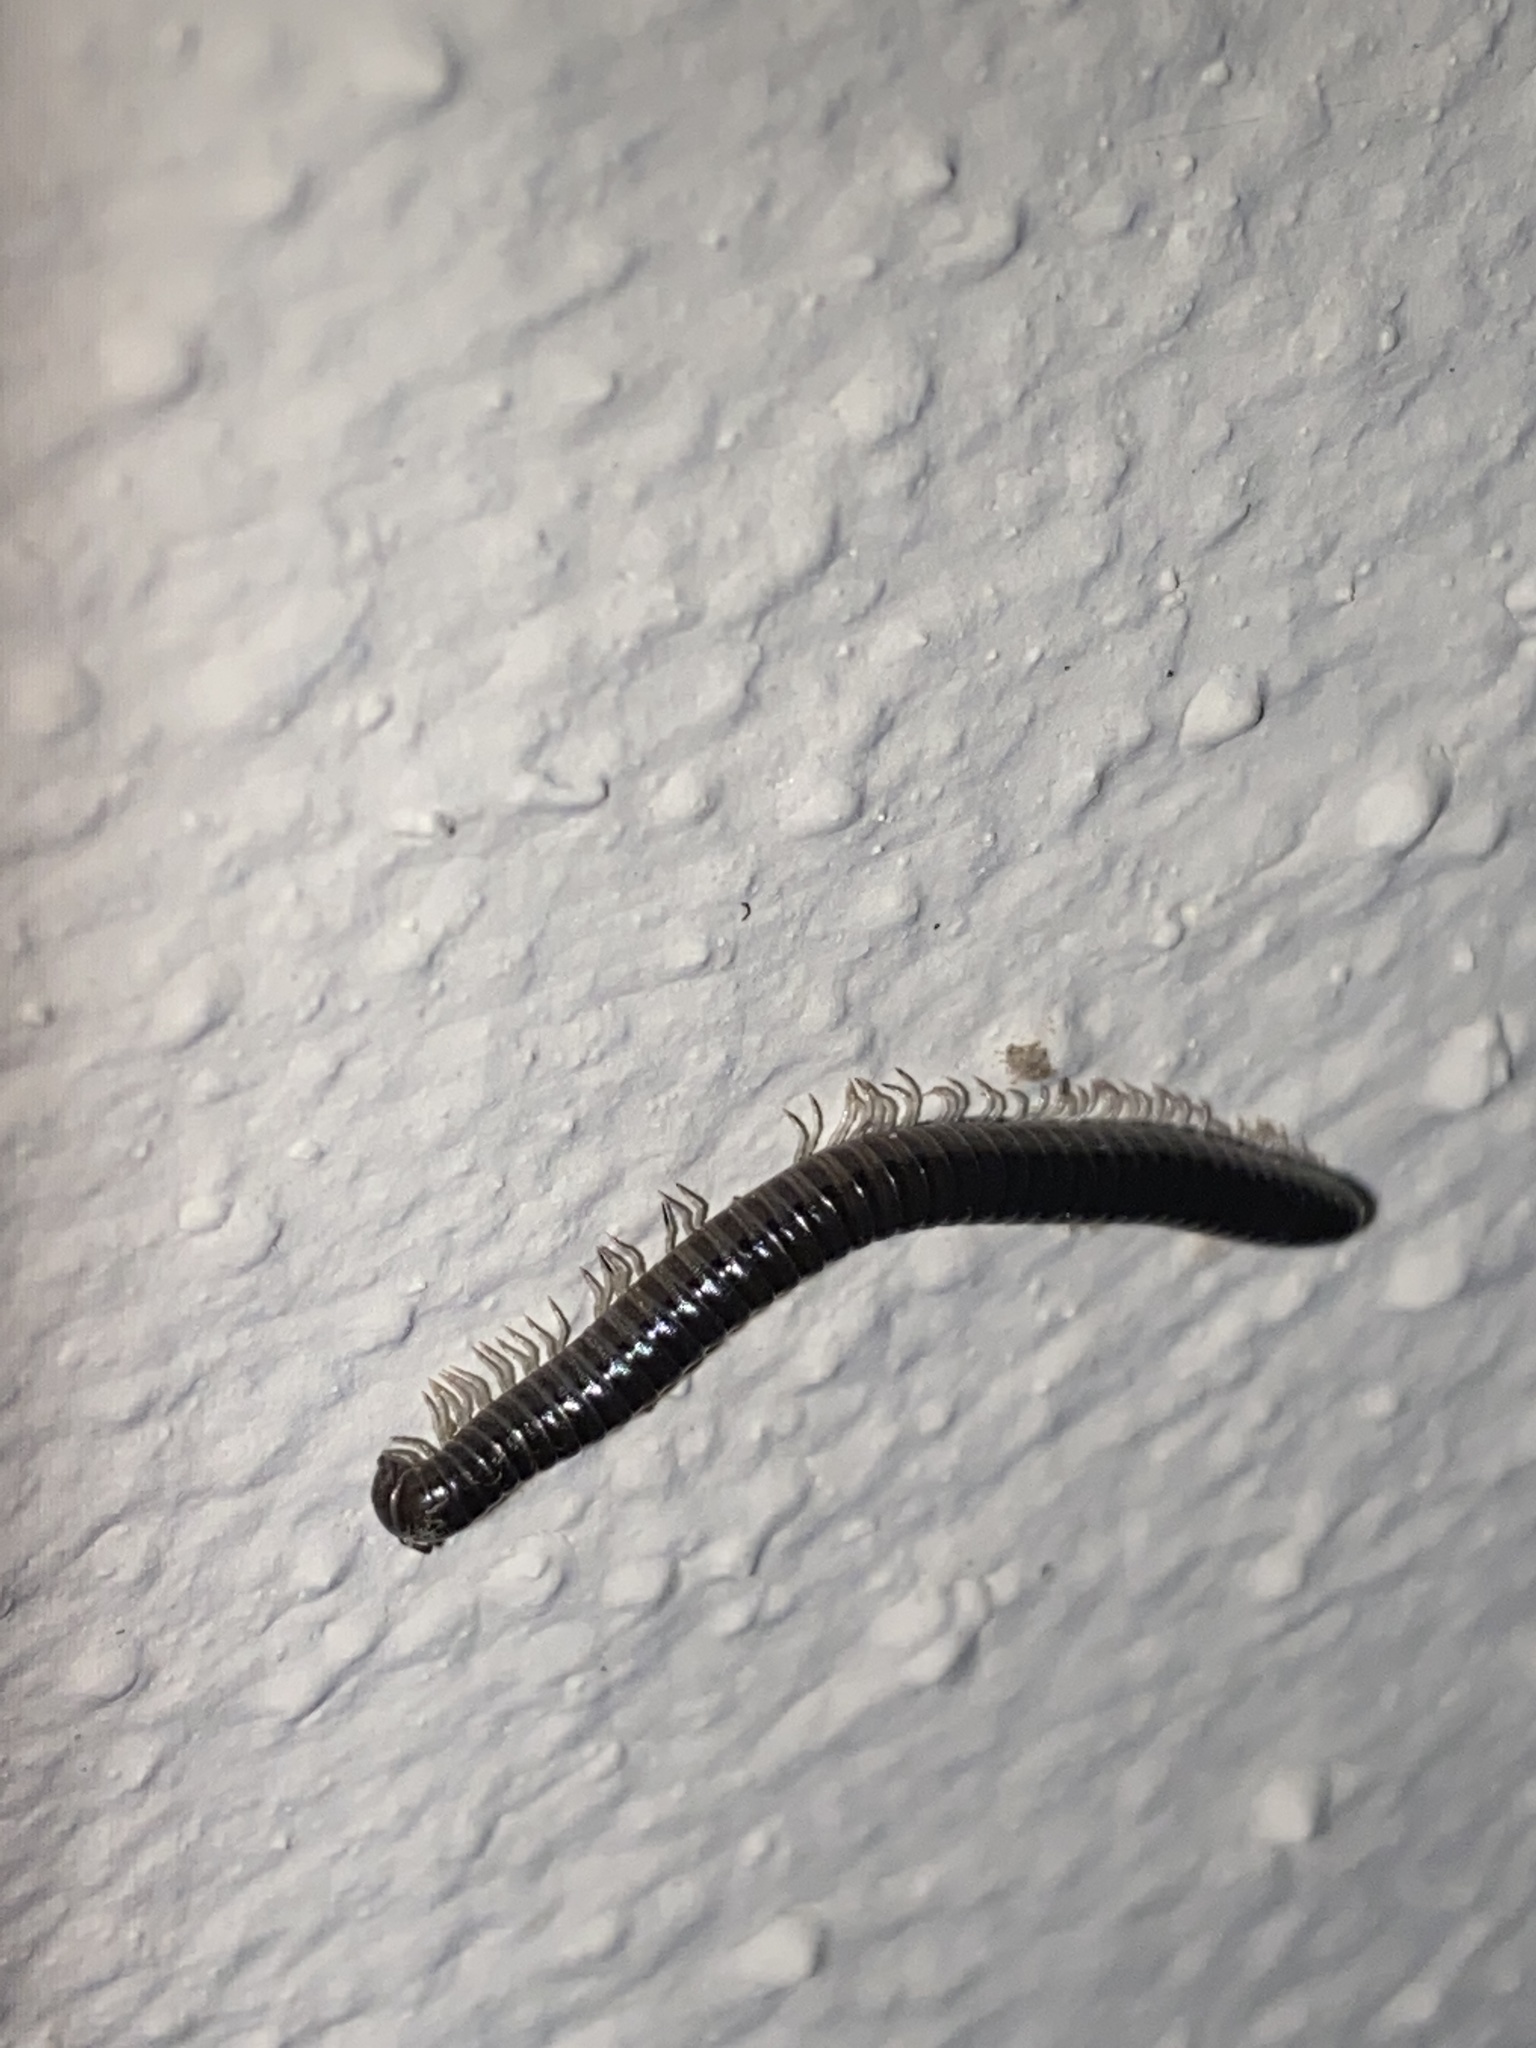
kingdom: Animalia
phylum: Arthropoda
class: Diplopoda
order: Julida
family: Julidae
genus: Tachypodoiulus
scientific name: Tachypodoiulus niger
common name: White-legged snake millipede
